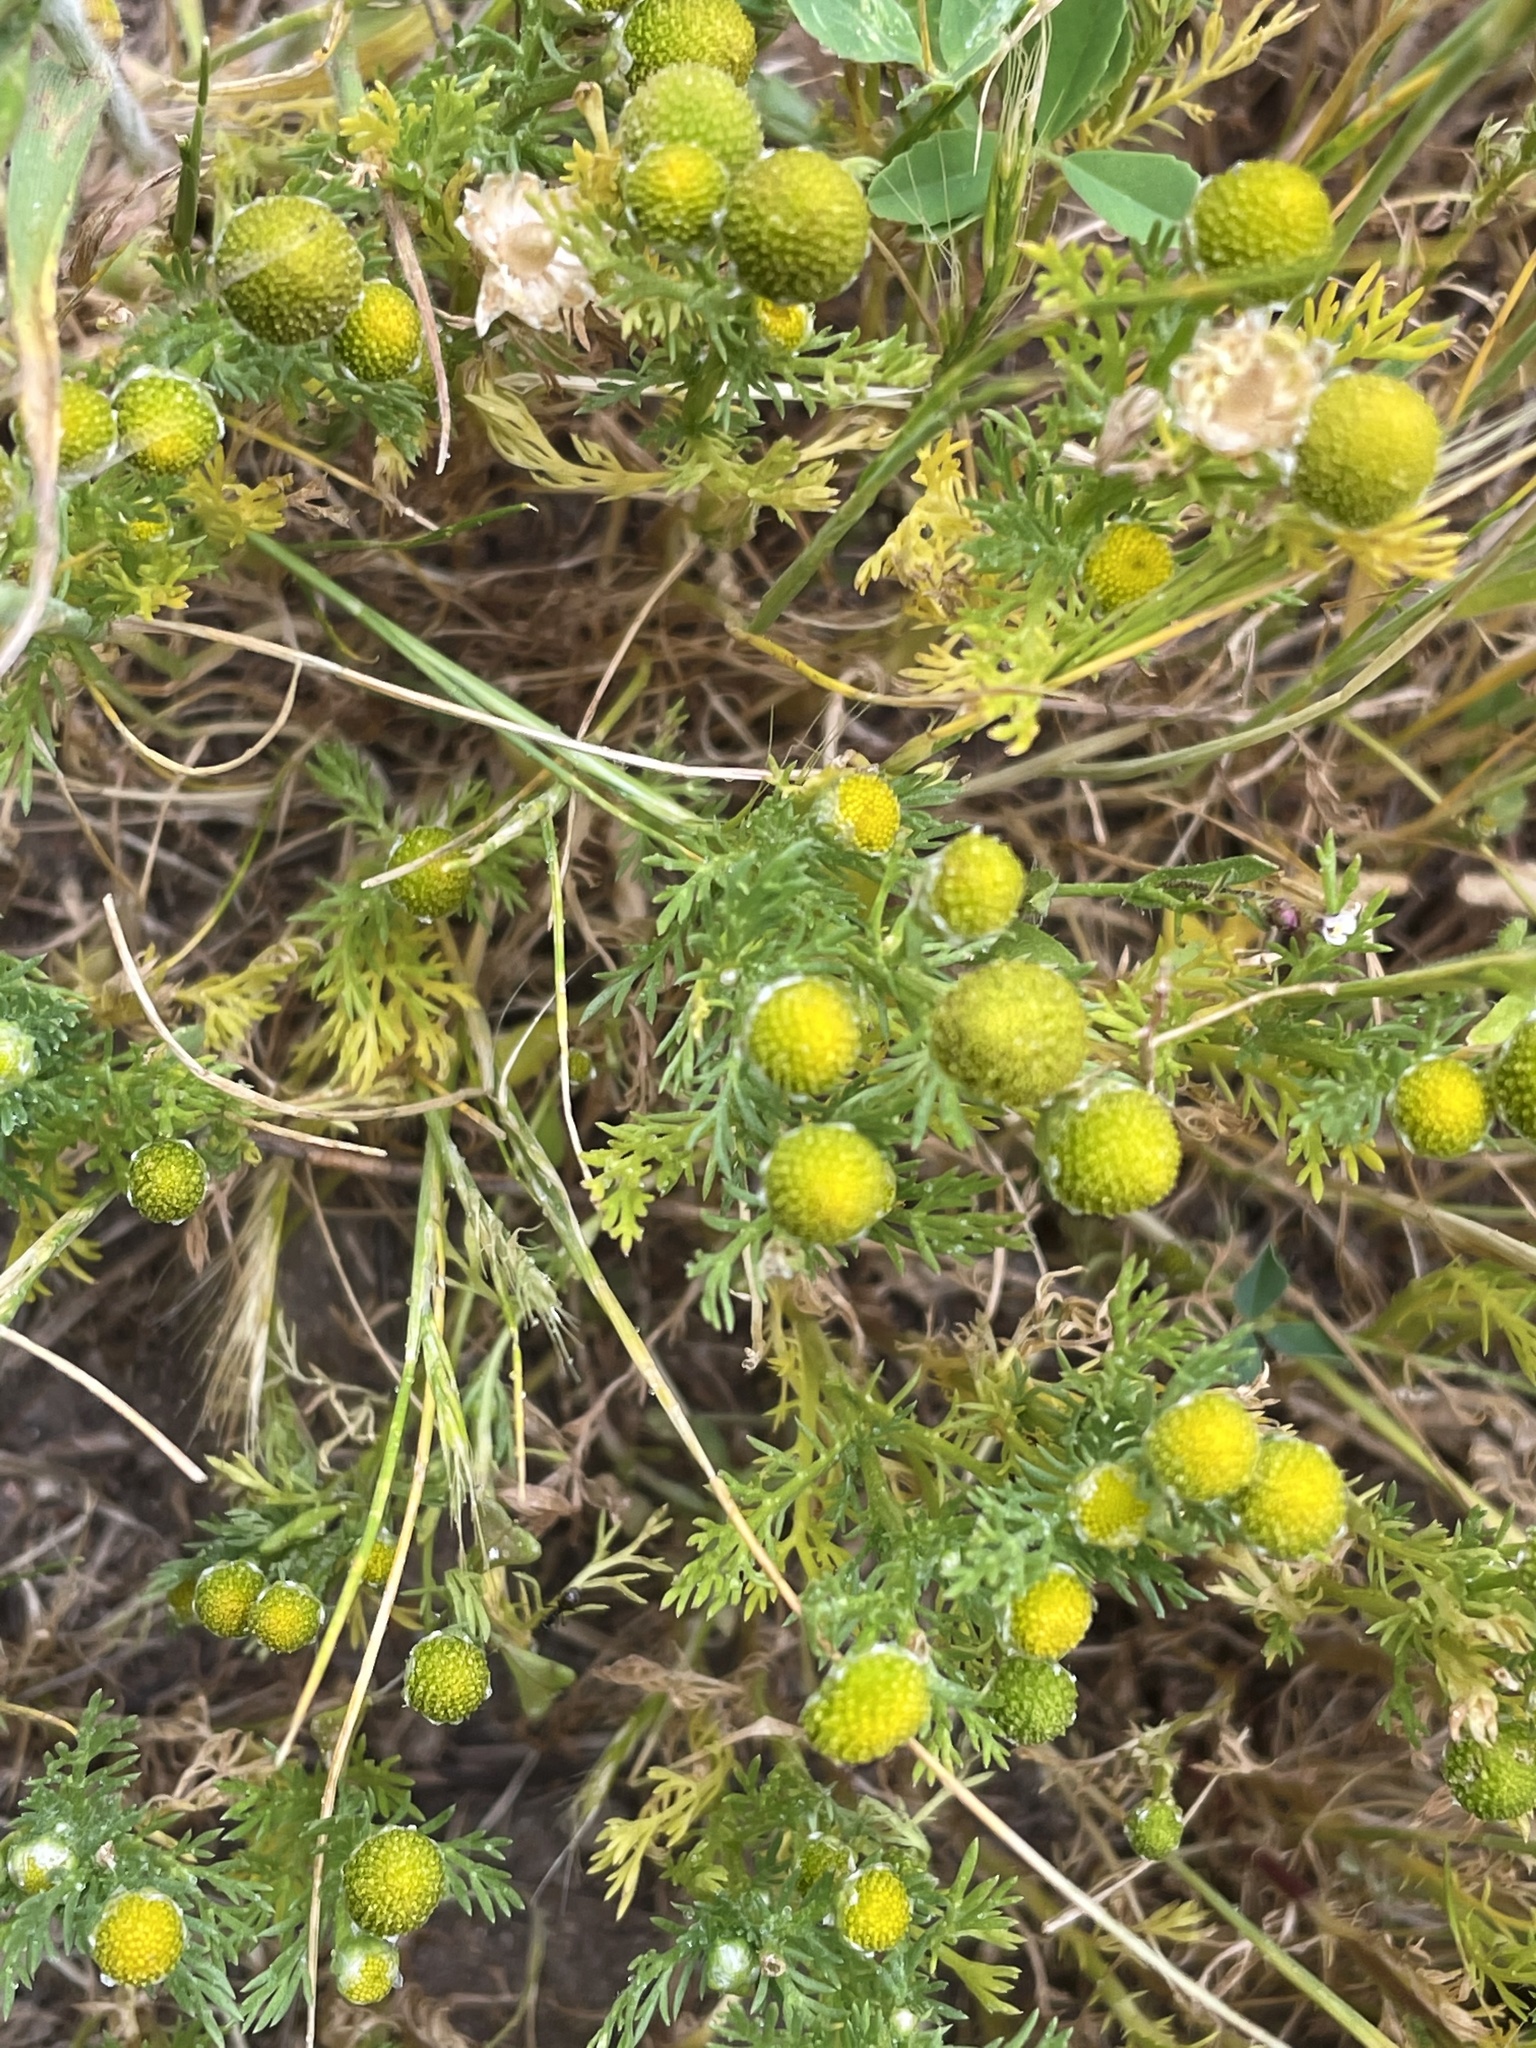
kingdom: Plantae
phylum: Tracheophyta
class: Magnoliopsida
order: Asterales
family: Asteraceae
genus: Matricaria
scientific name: Matricaria discoidea
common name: Disc mayweed
